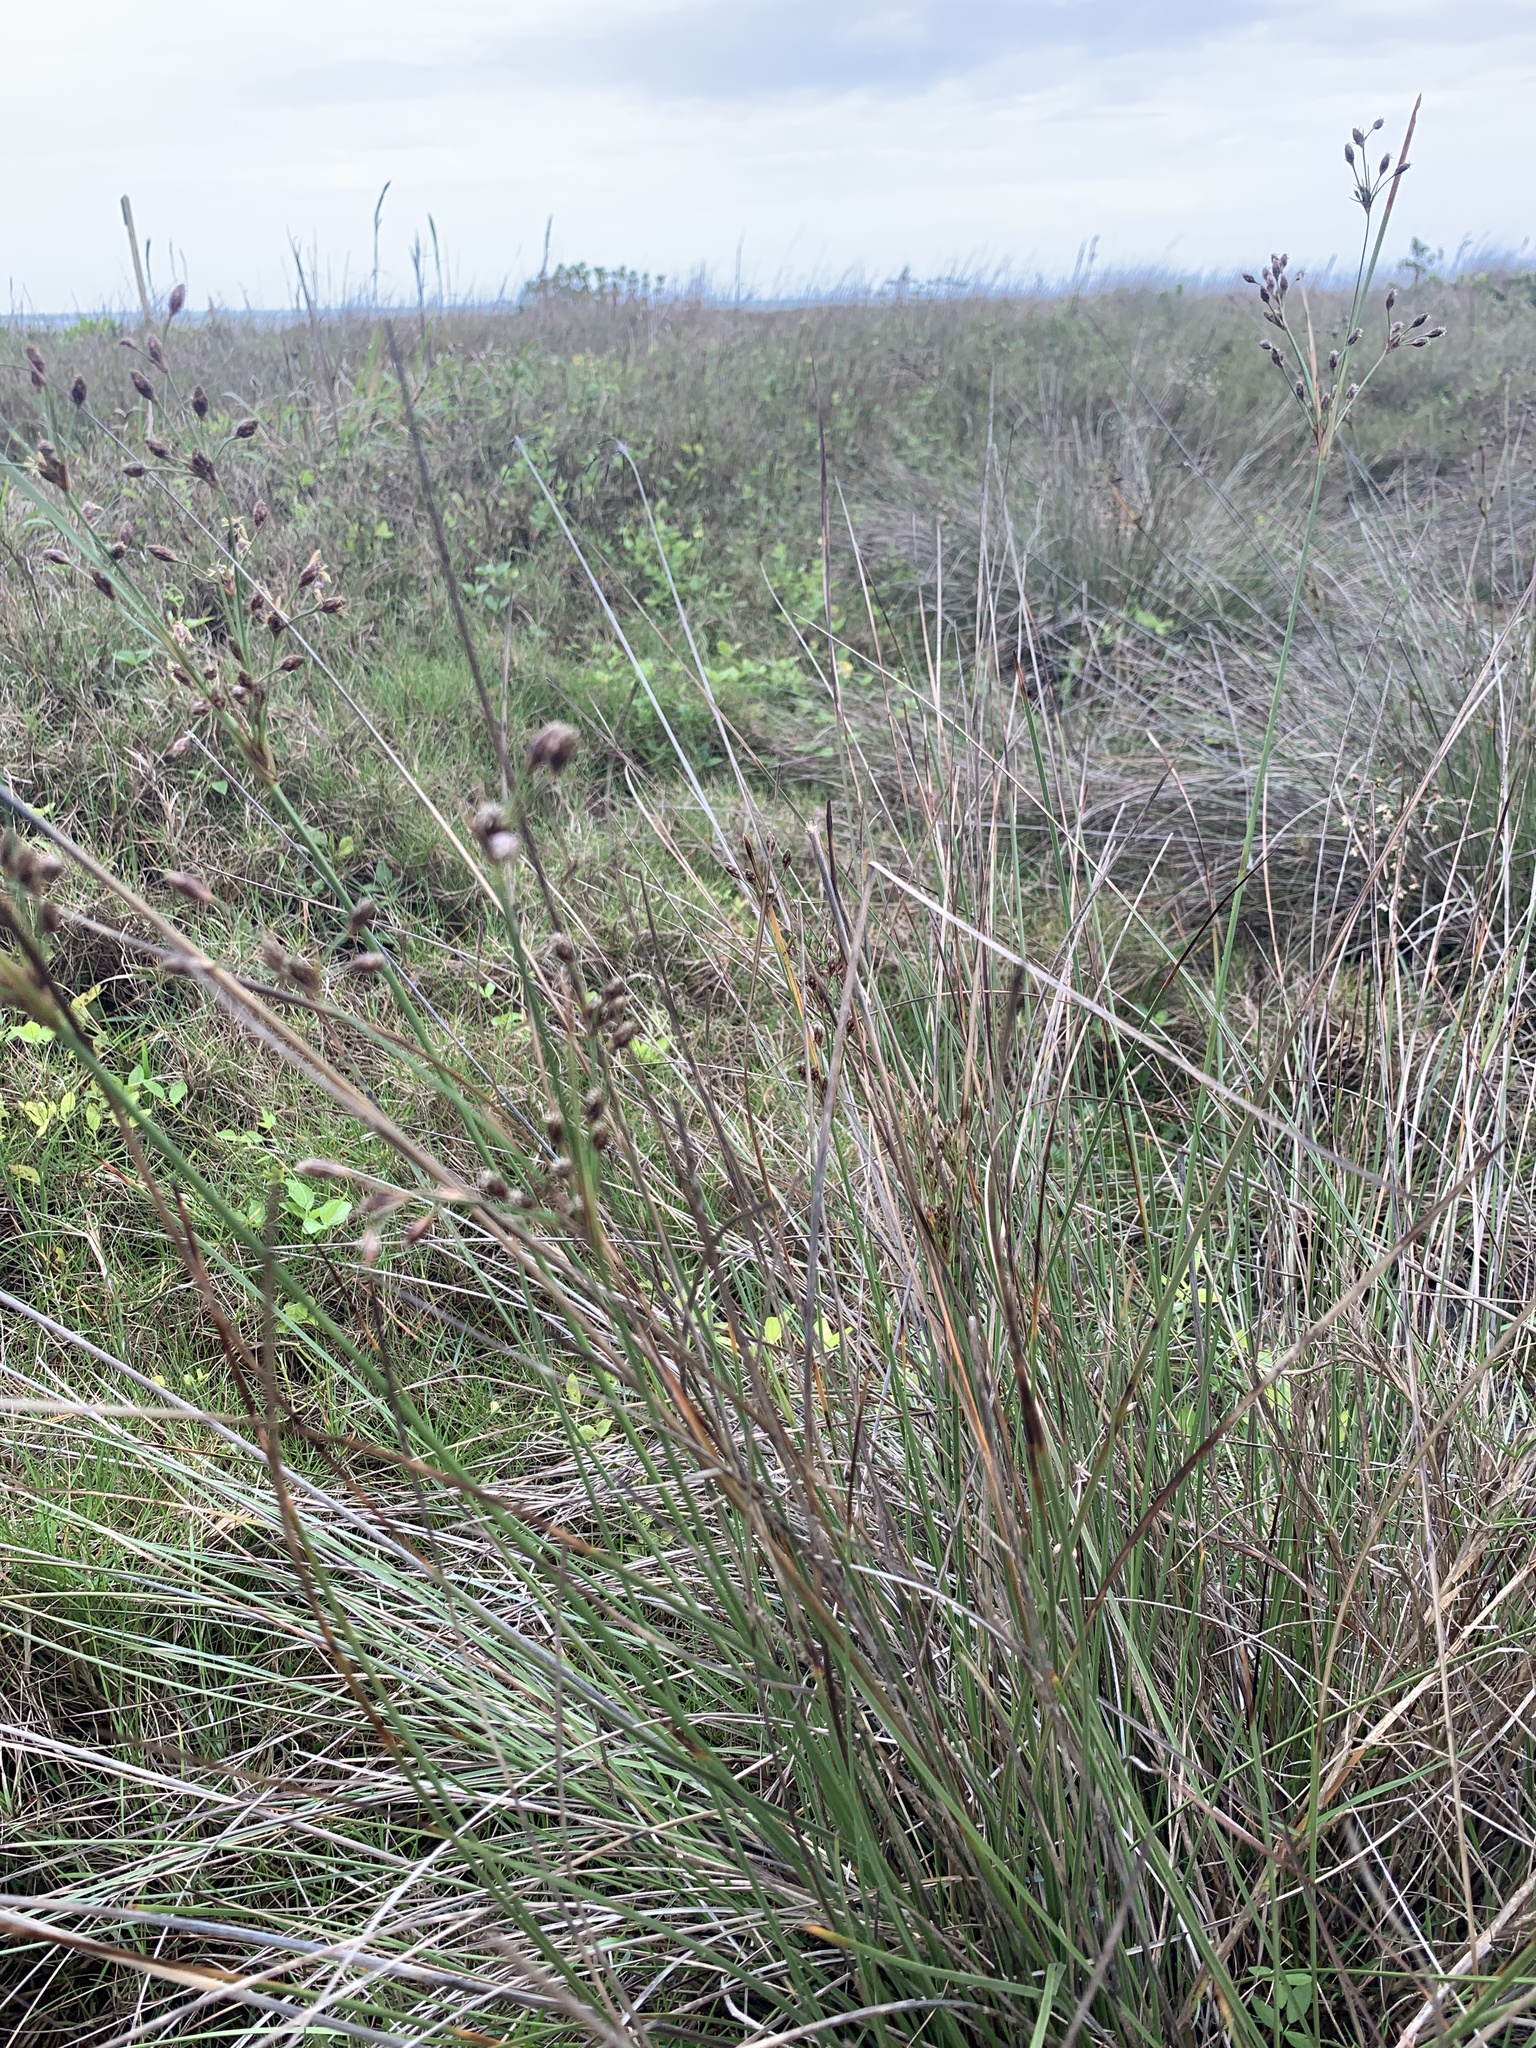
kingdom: Plantae
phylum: Tracheophyta
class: Liliopsida
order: Poales
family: Cyperaceae
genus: Fimbristylis
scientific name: Fimbristylis spadicea
